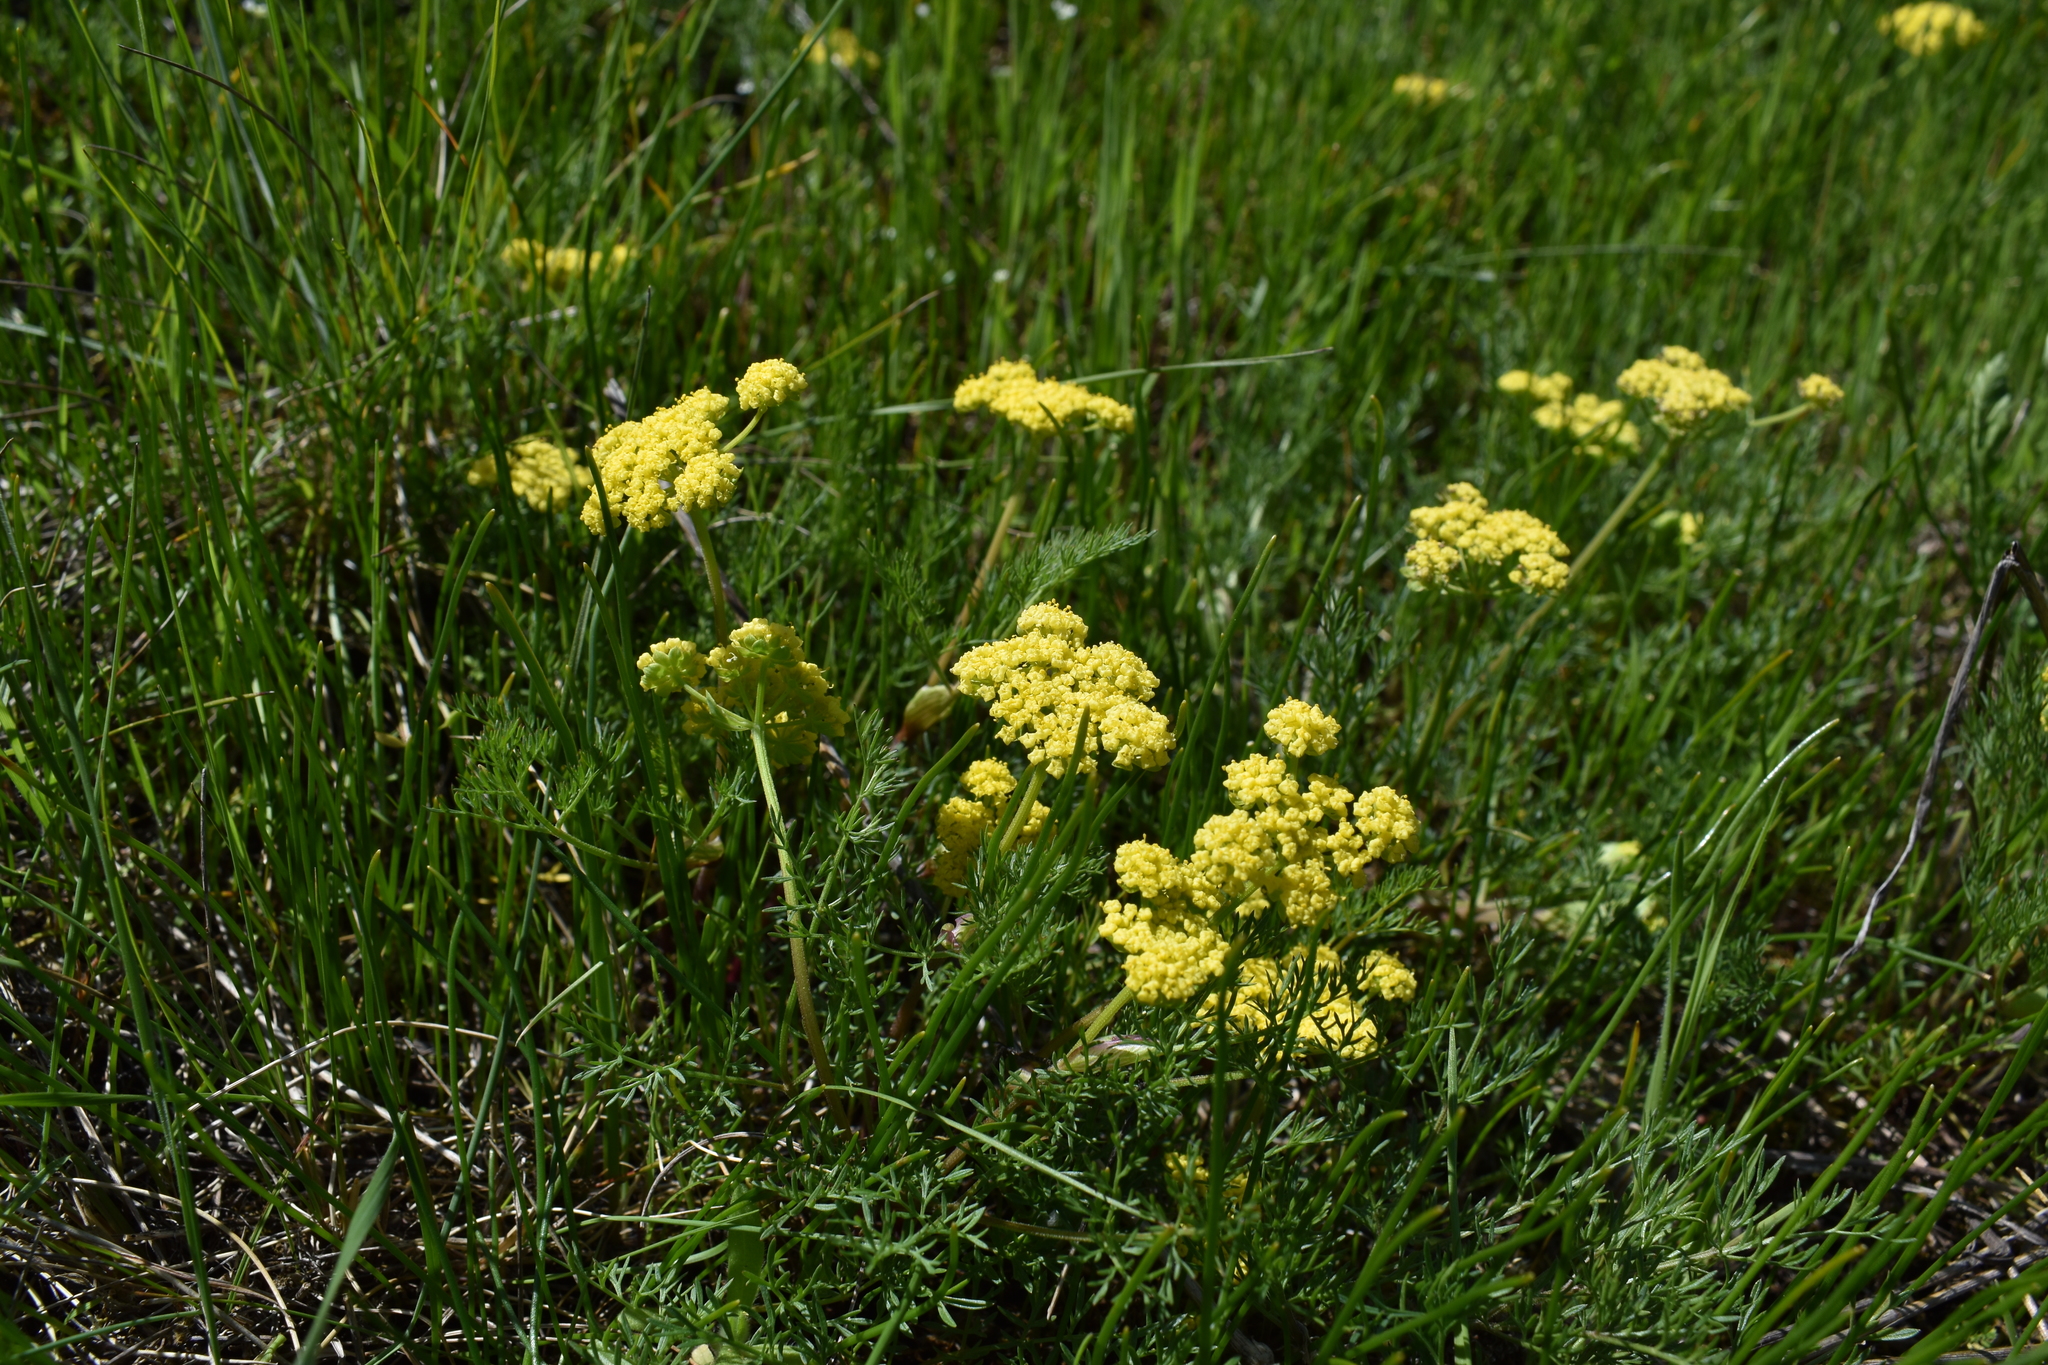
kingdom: Plantae
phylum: Tracheophyta
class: Magnoliopsida
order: Apiales
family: Apiaceae
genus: Lomatium
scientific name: Lomatium utriculatum
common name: Fine-leaf desert-parsley
